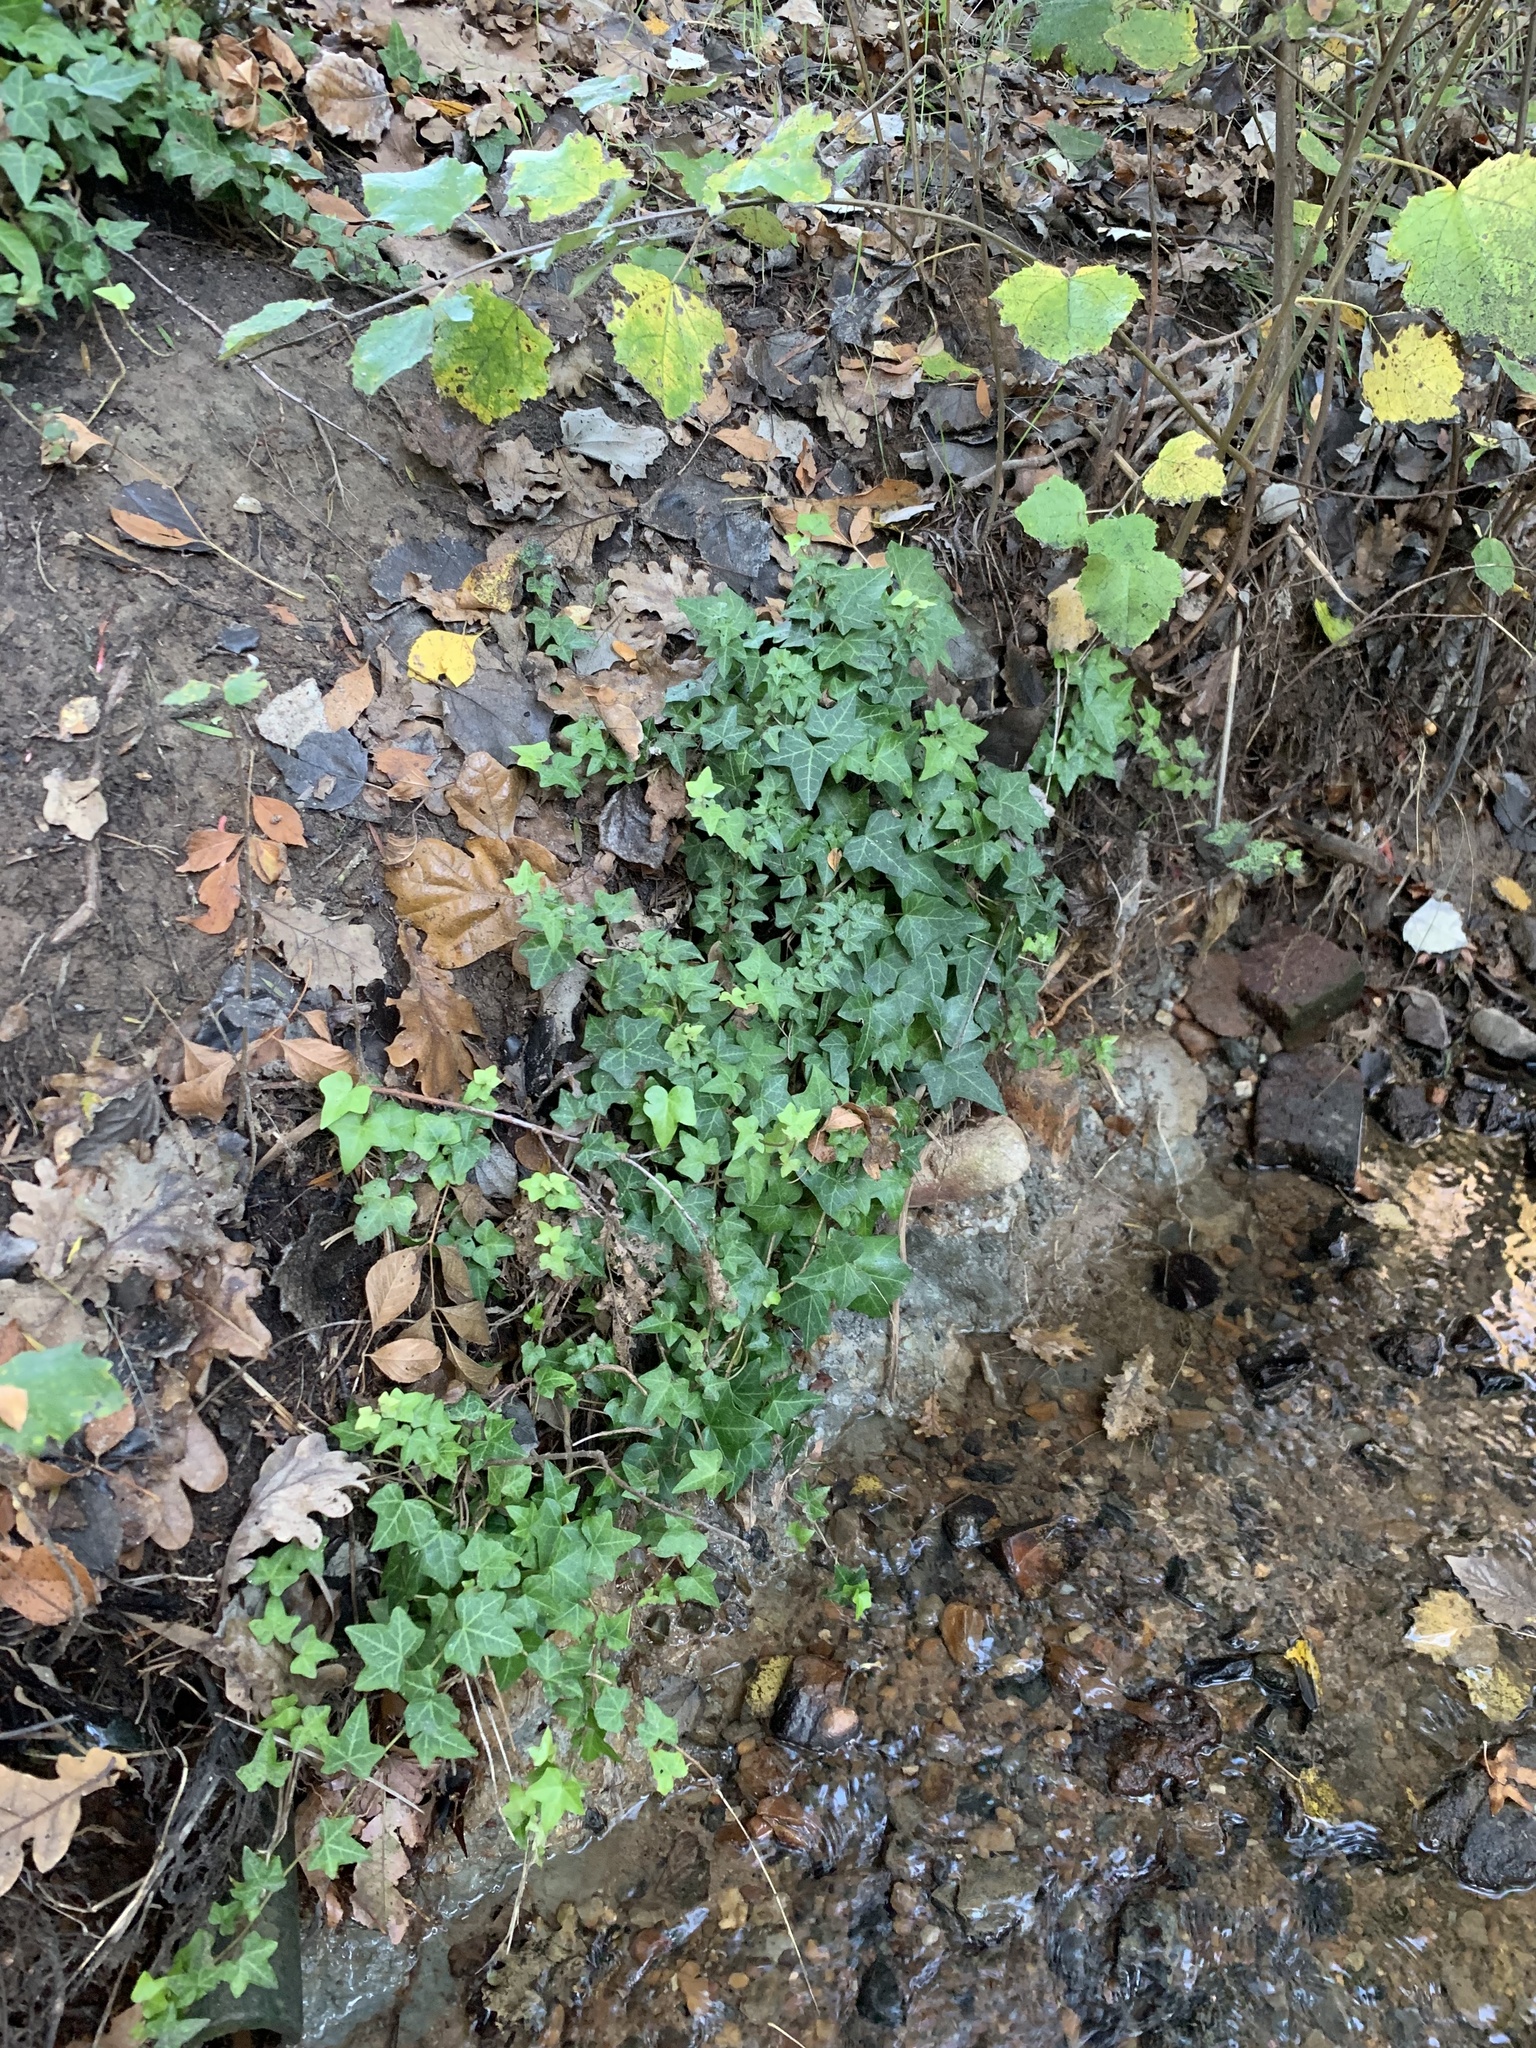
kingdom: Plantae
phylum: Tracheophyta
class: Magnoliopsida
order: Apiales
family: Araliaceae
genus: Hedera
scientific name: Hedera helix
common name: Ivy
